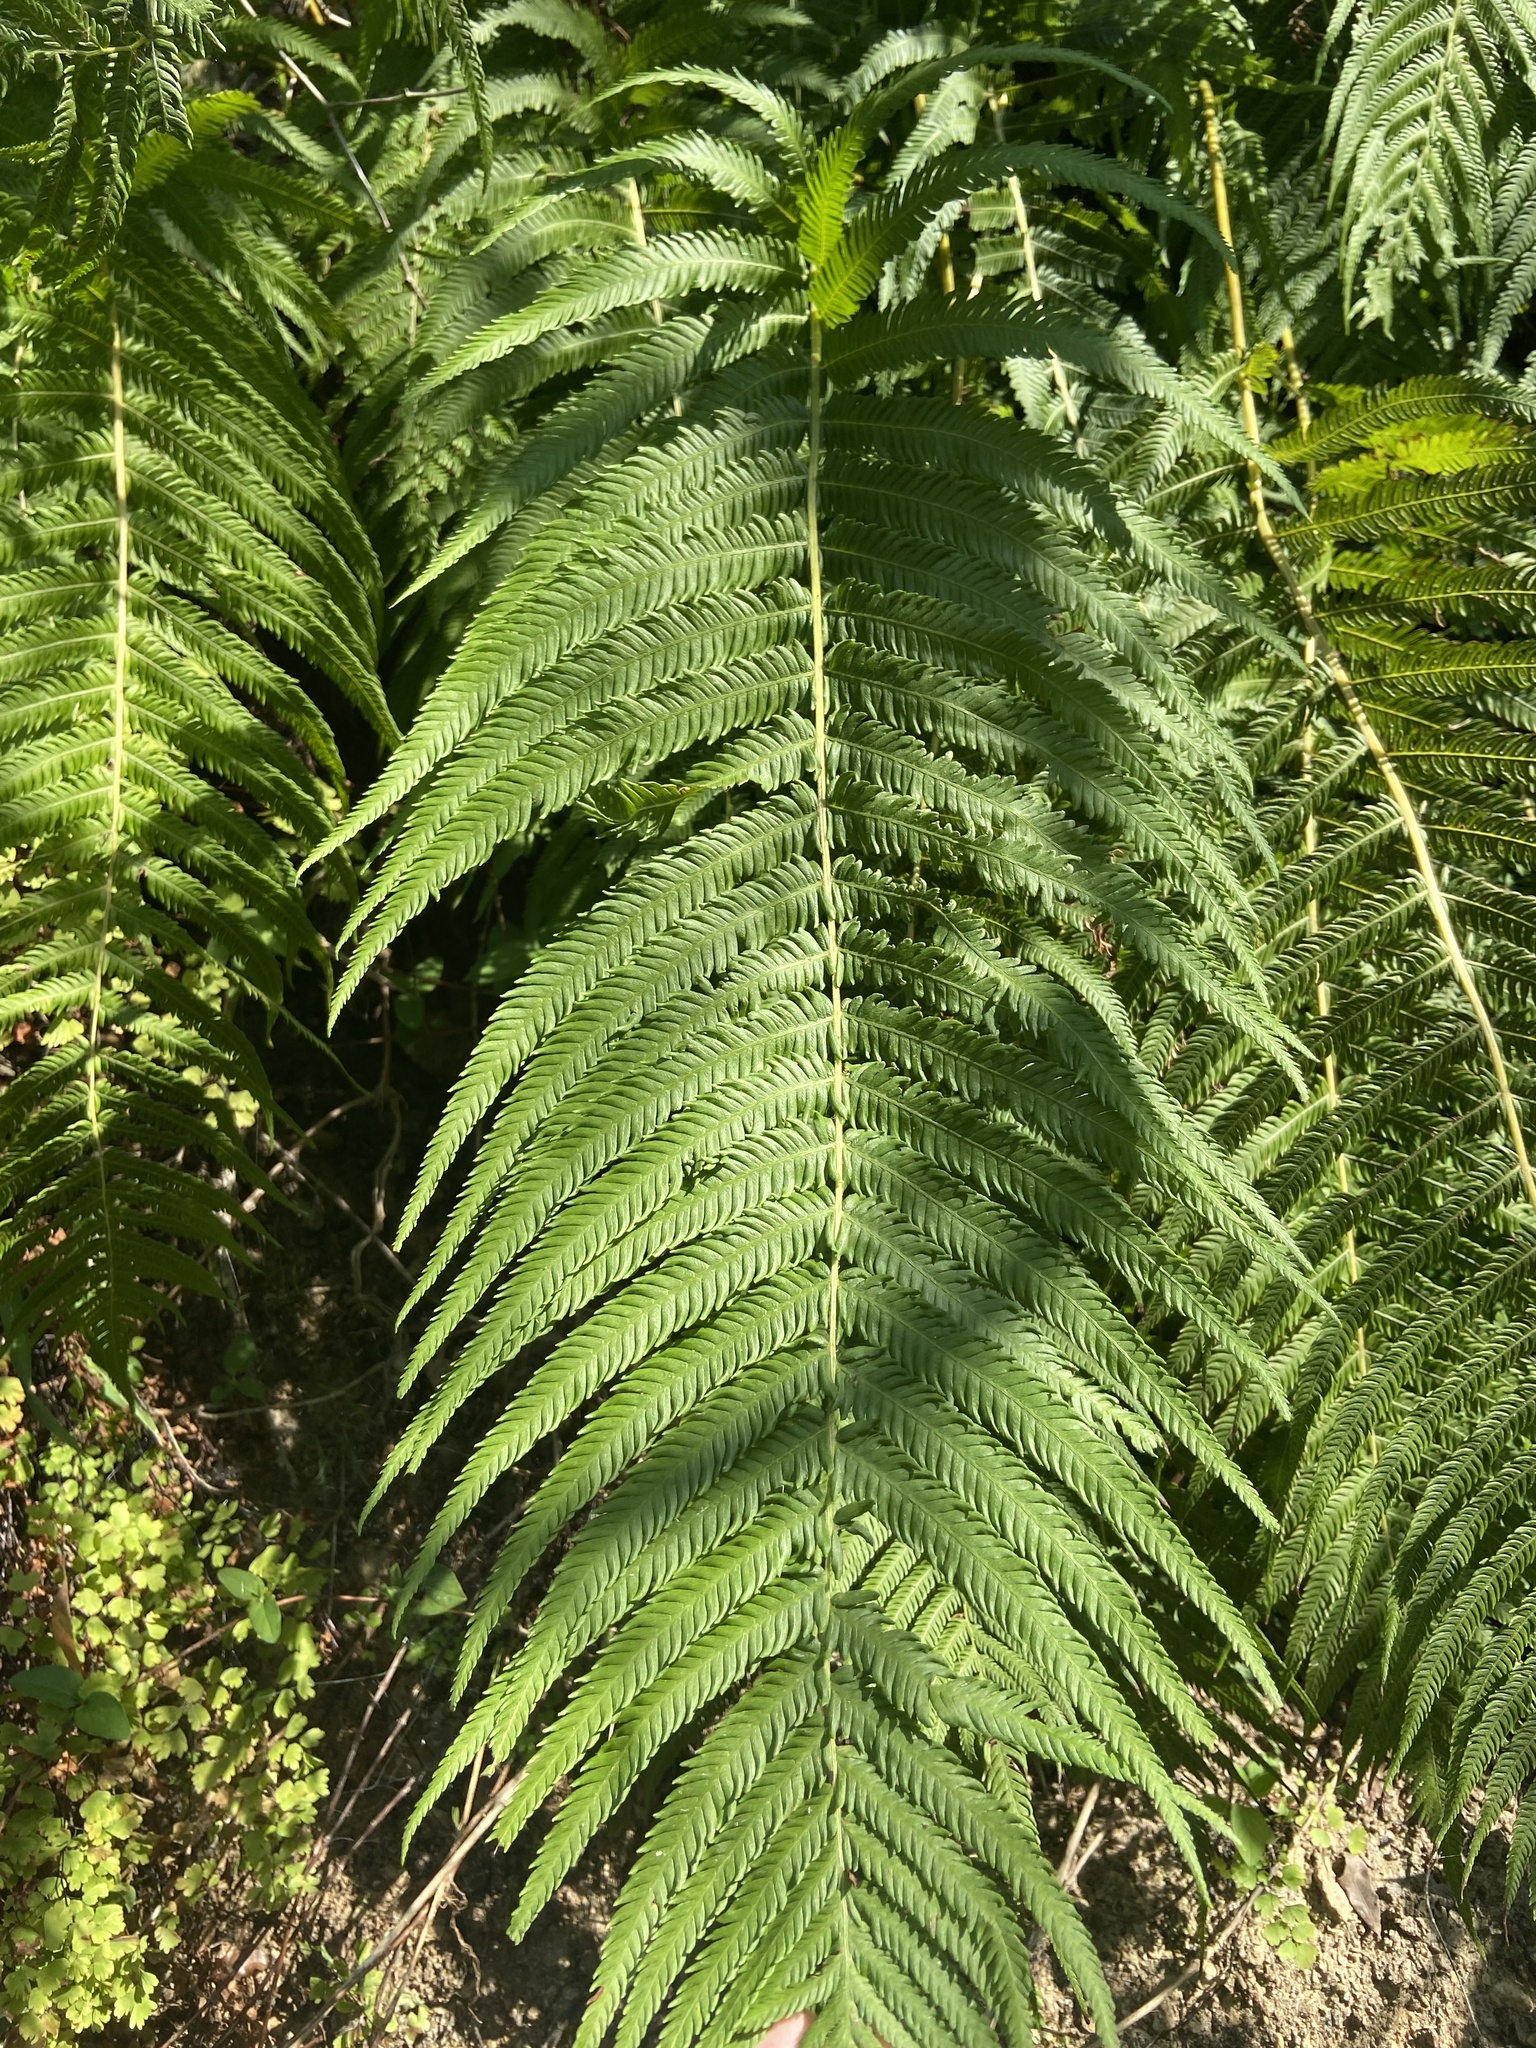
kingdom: Plantae
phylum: Tracheophyta
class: Polypodiopsida
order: Polypodiales
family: Thelypteridaceae
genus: Pelazoneuron
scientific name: Pelazoneuron ovatum
